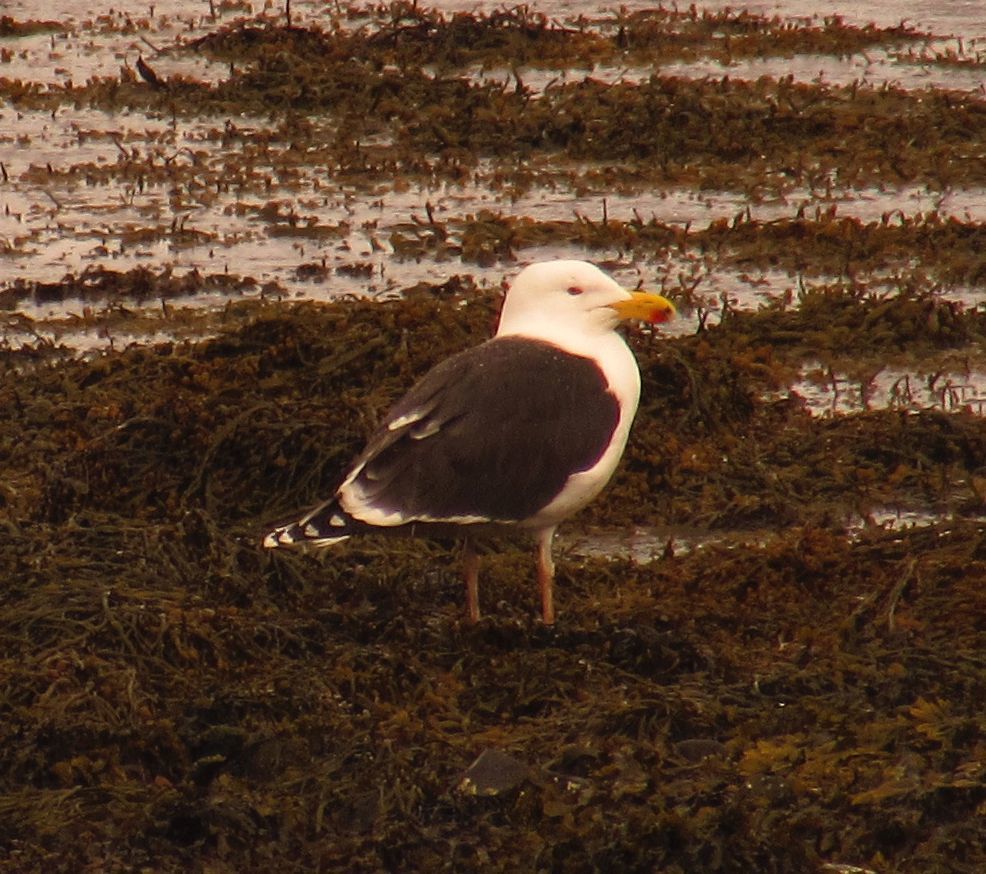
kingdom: Animalia
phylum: Chordata
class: Aves
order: Charadriiformes
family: Laridae
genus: Larus
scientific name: Larus marinus
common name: Great black-backed gull
